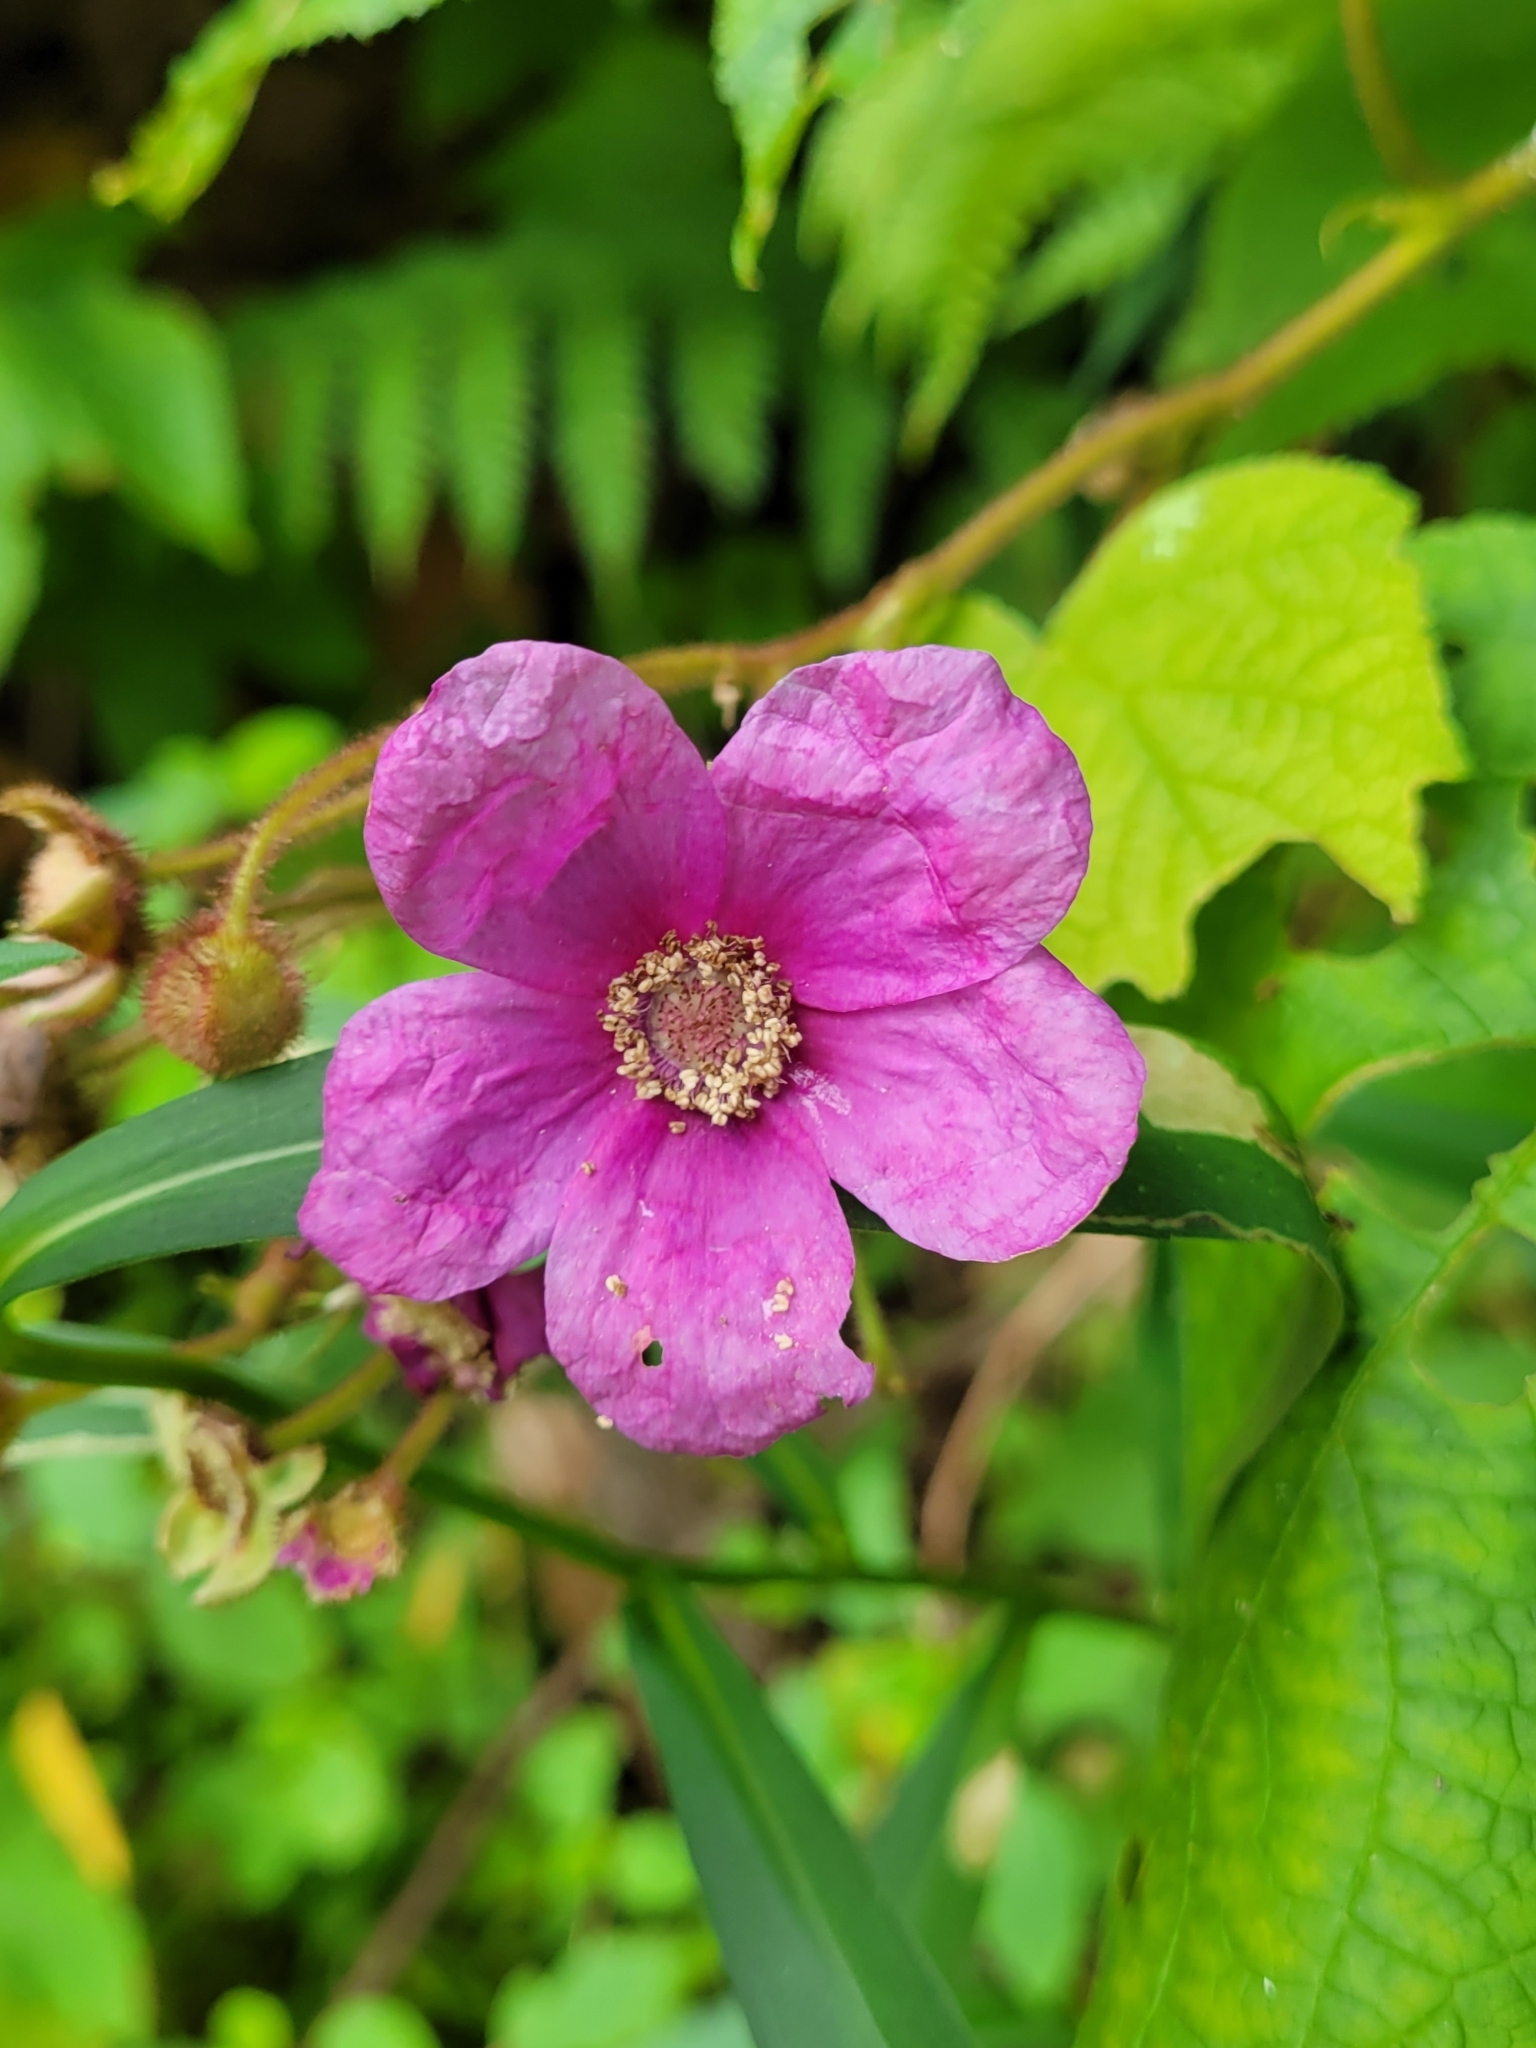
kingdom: Plantae
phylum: Tracheophyta
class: Magnoliopsida
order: Rosales
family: Rosaceae
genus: Rubus
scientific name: Rubus odoratus
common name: Purple-flowered raspberry
